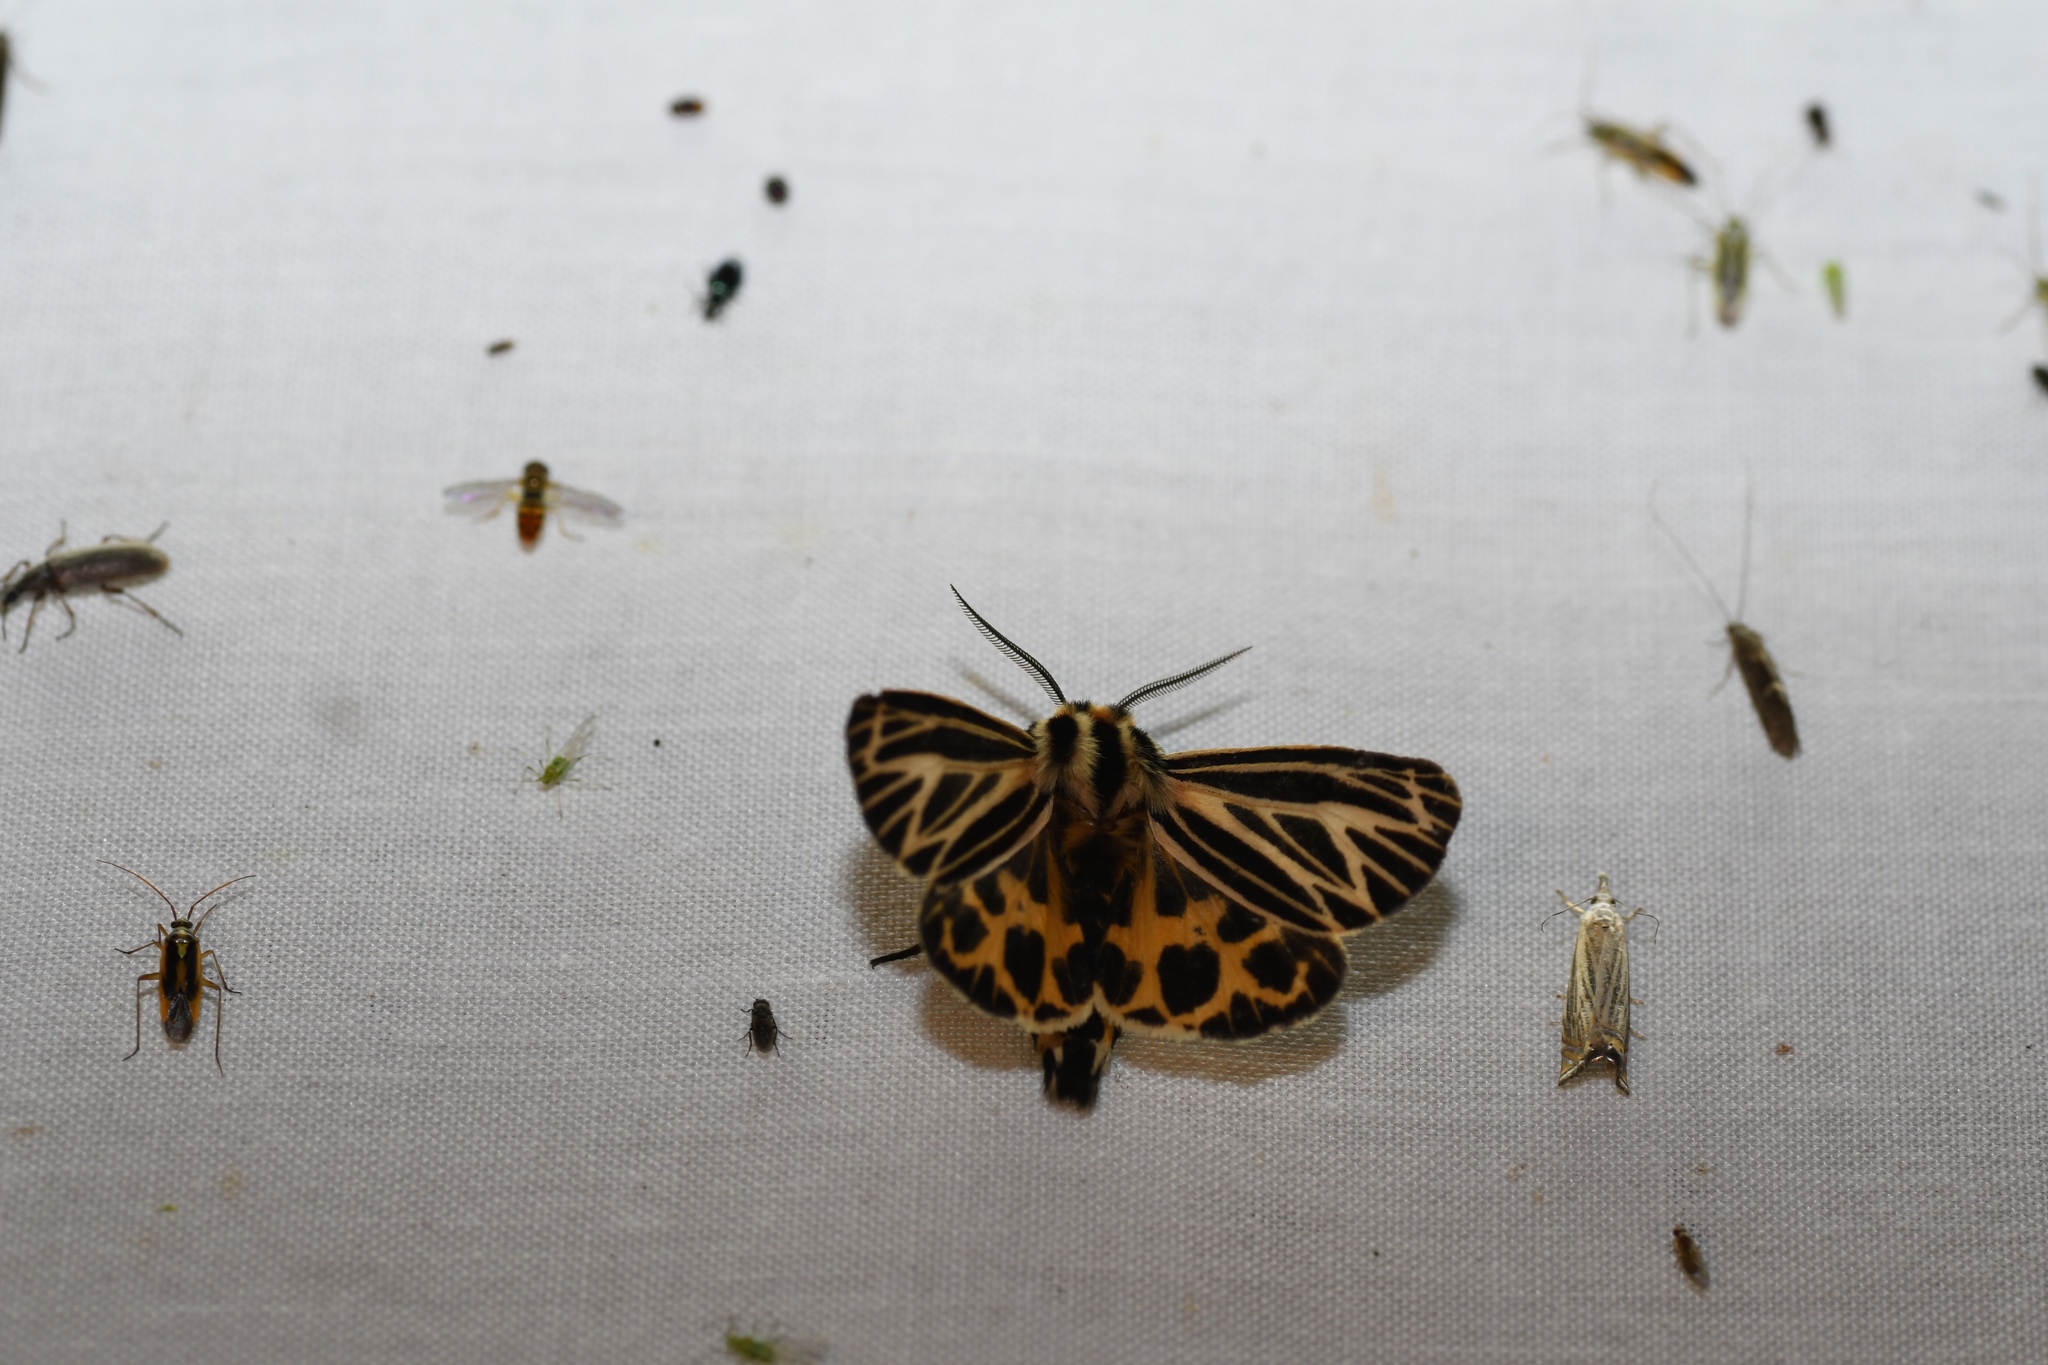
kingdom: Animalia
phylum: Arthropoda
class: Insecta
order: Lepidoptera
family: Erebidae
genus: Grammia
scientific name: Grammia virguncula
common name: Little tiger moth
